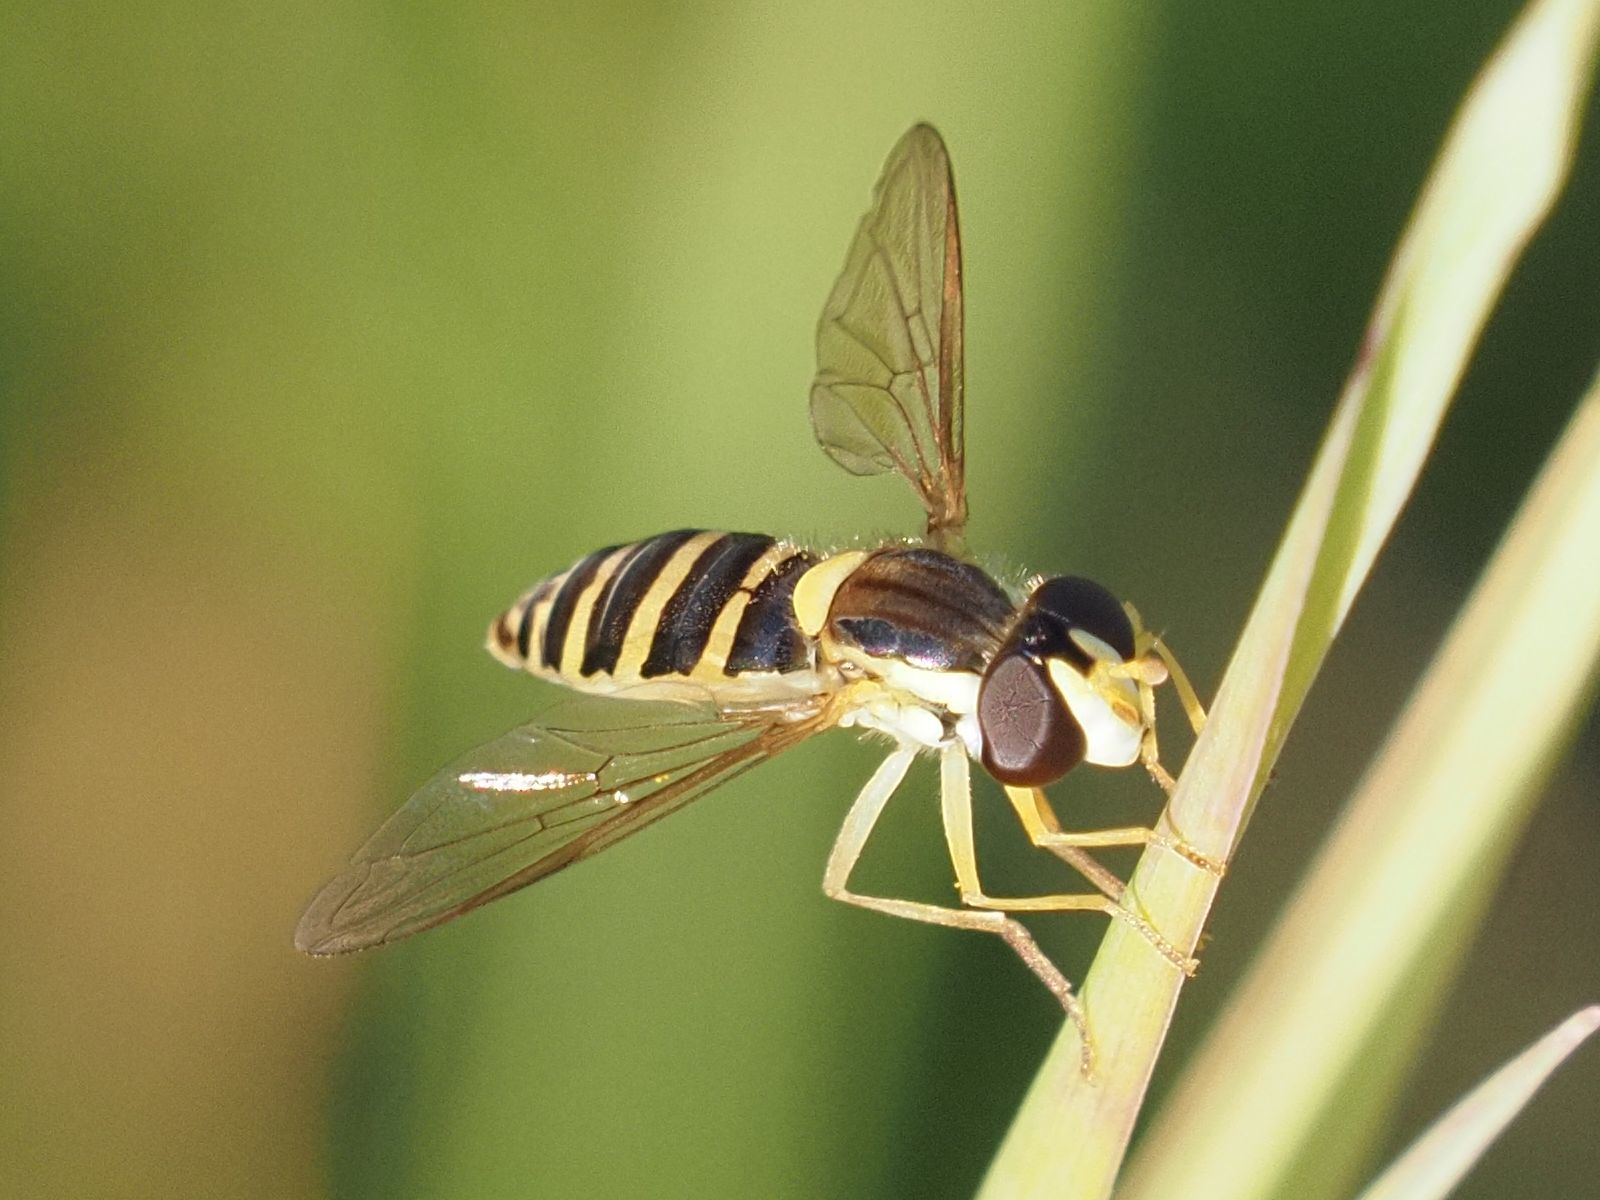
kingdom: Animalia
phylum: Arthropoda
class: Insecta
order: Diptera
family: Syrphidae
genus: Sphaerophoria
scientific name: Sphaerophoria
